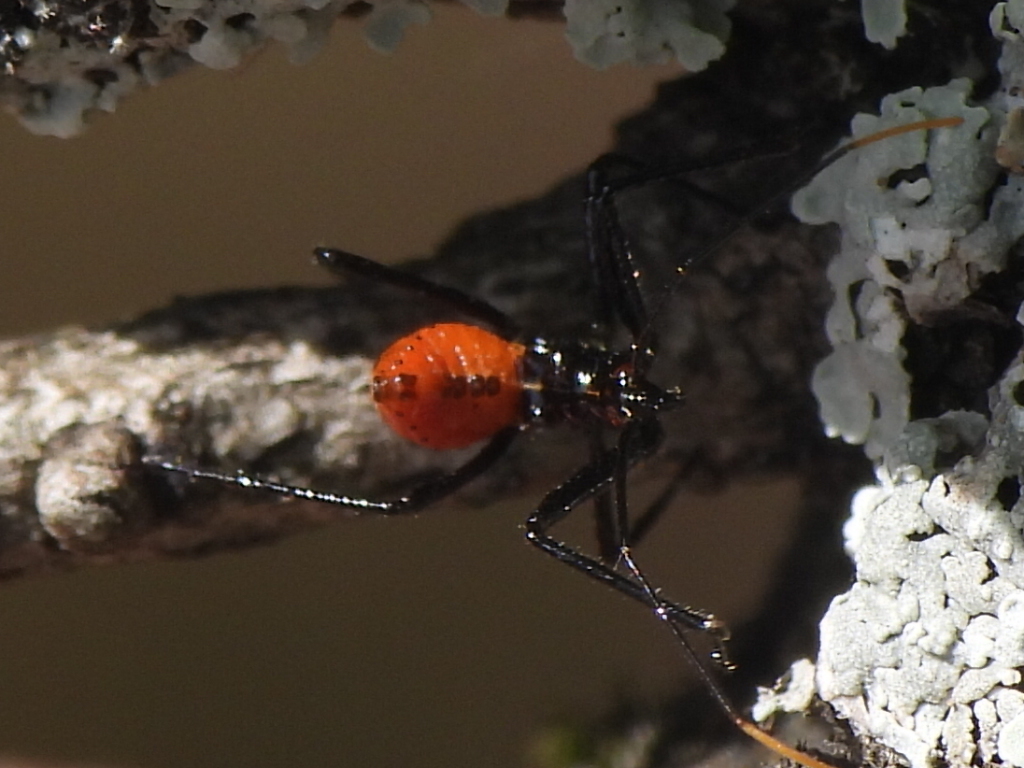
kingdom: Animalia
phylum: Arthropoda
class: Insecta
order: Hemiptera
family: Reduviidae
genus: Arilus
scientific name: Arilus cristatus
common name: North american wheel bug
